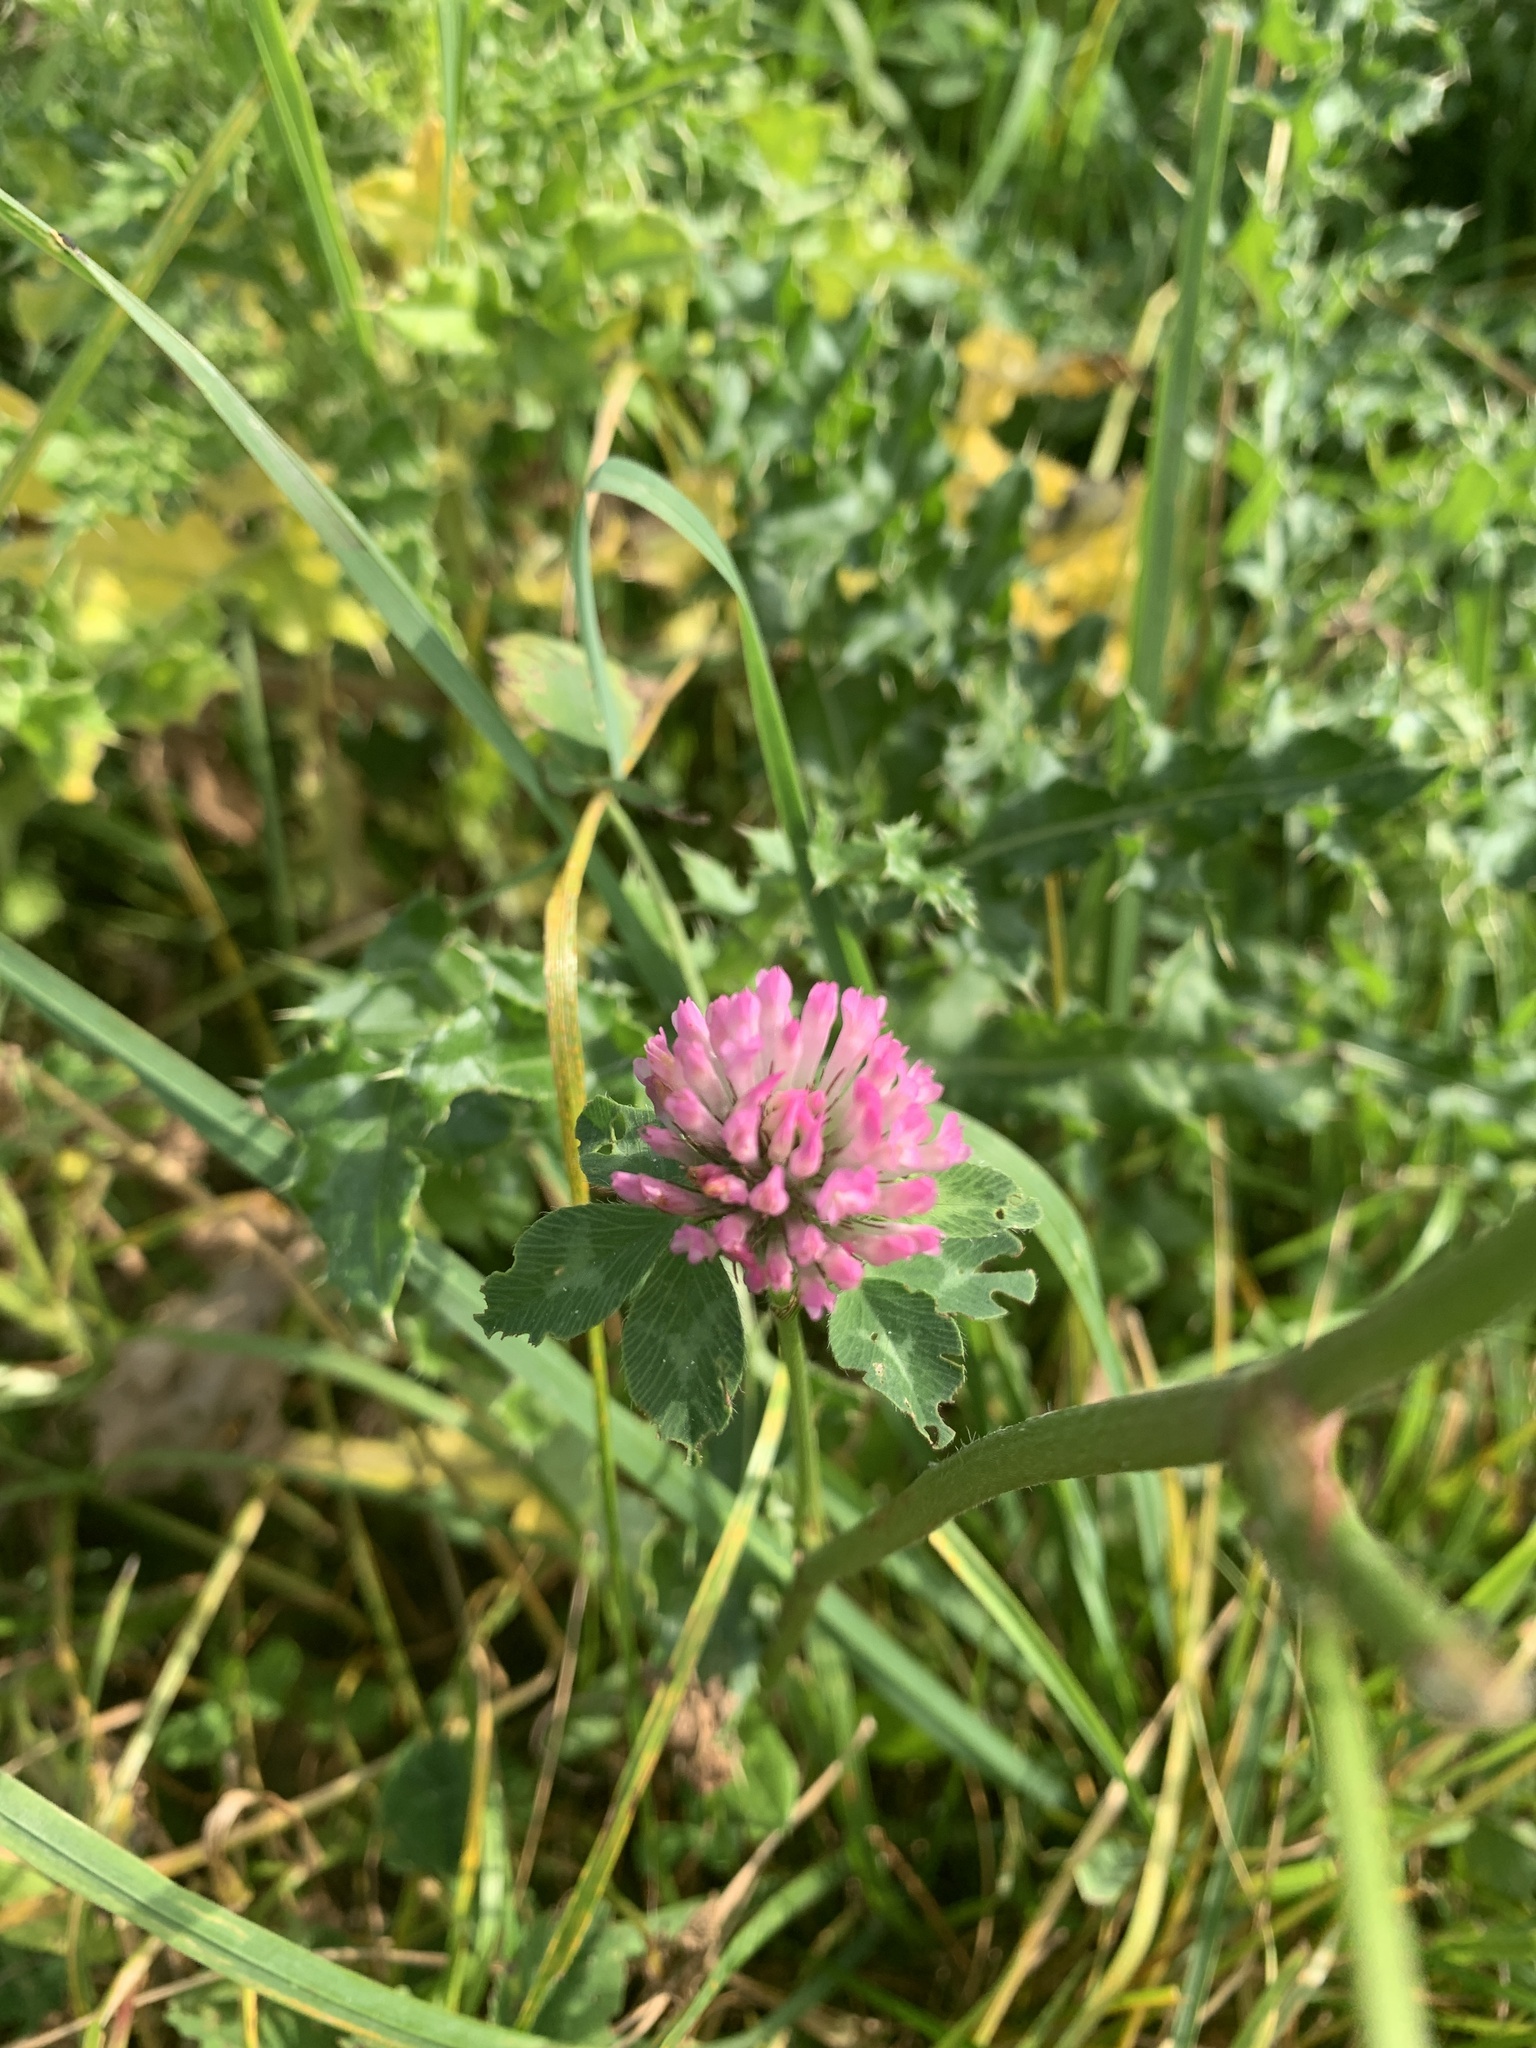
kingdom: Plantae
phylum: Tracheophyta
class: Magnoliopsida
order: Fabales
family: Fabaceae
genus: Trifolium
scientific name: Trifolium pratense
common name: Red clover
